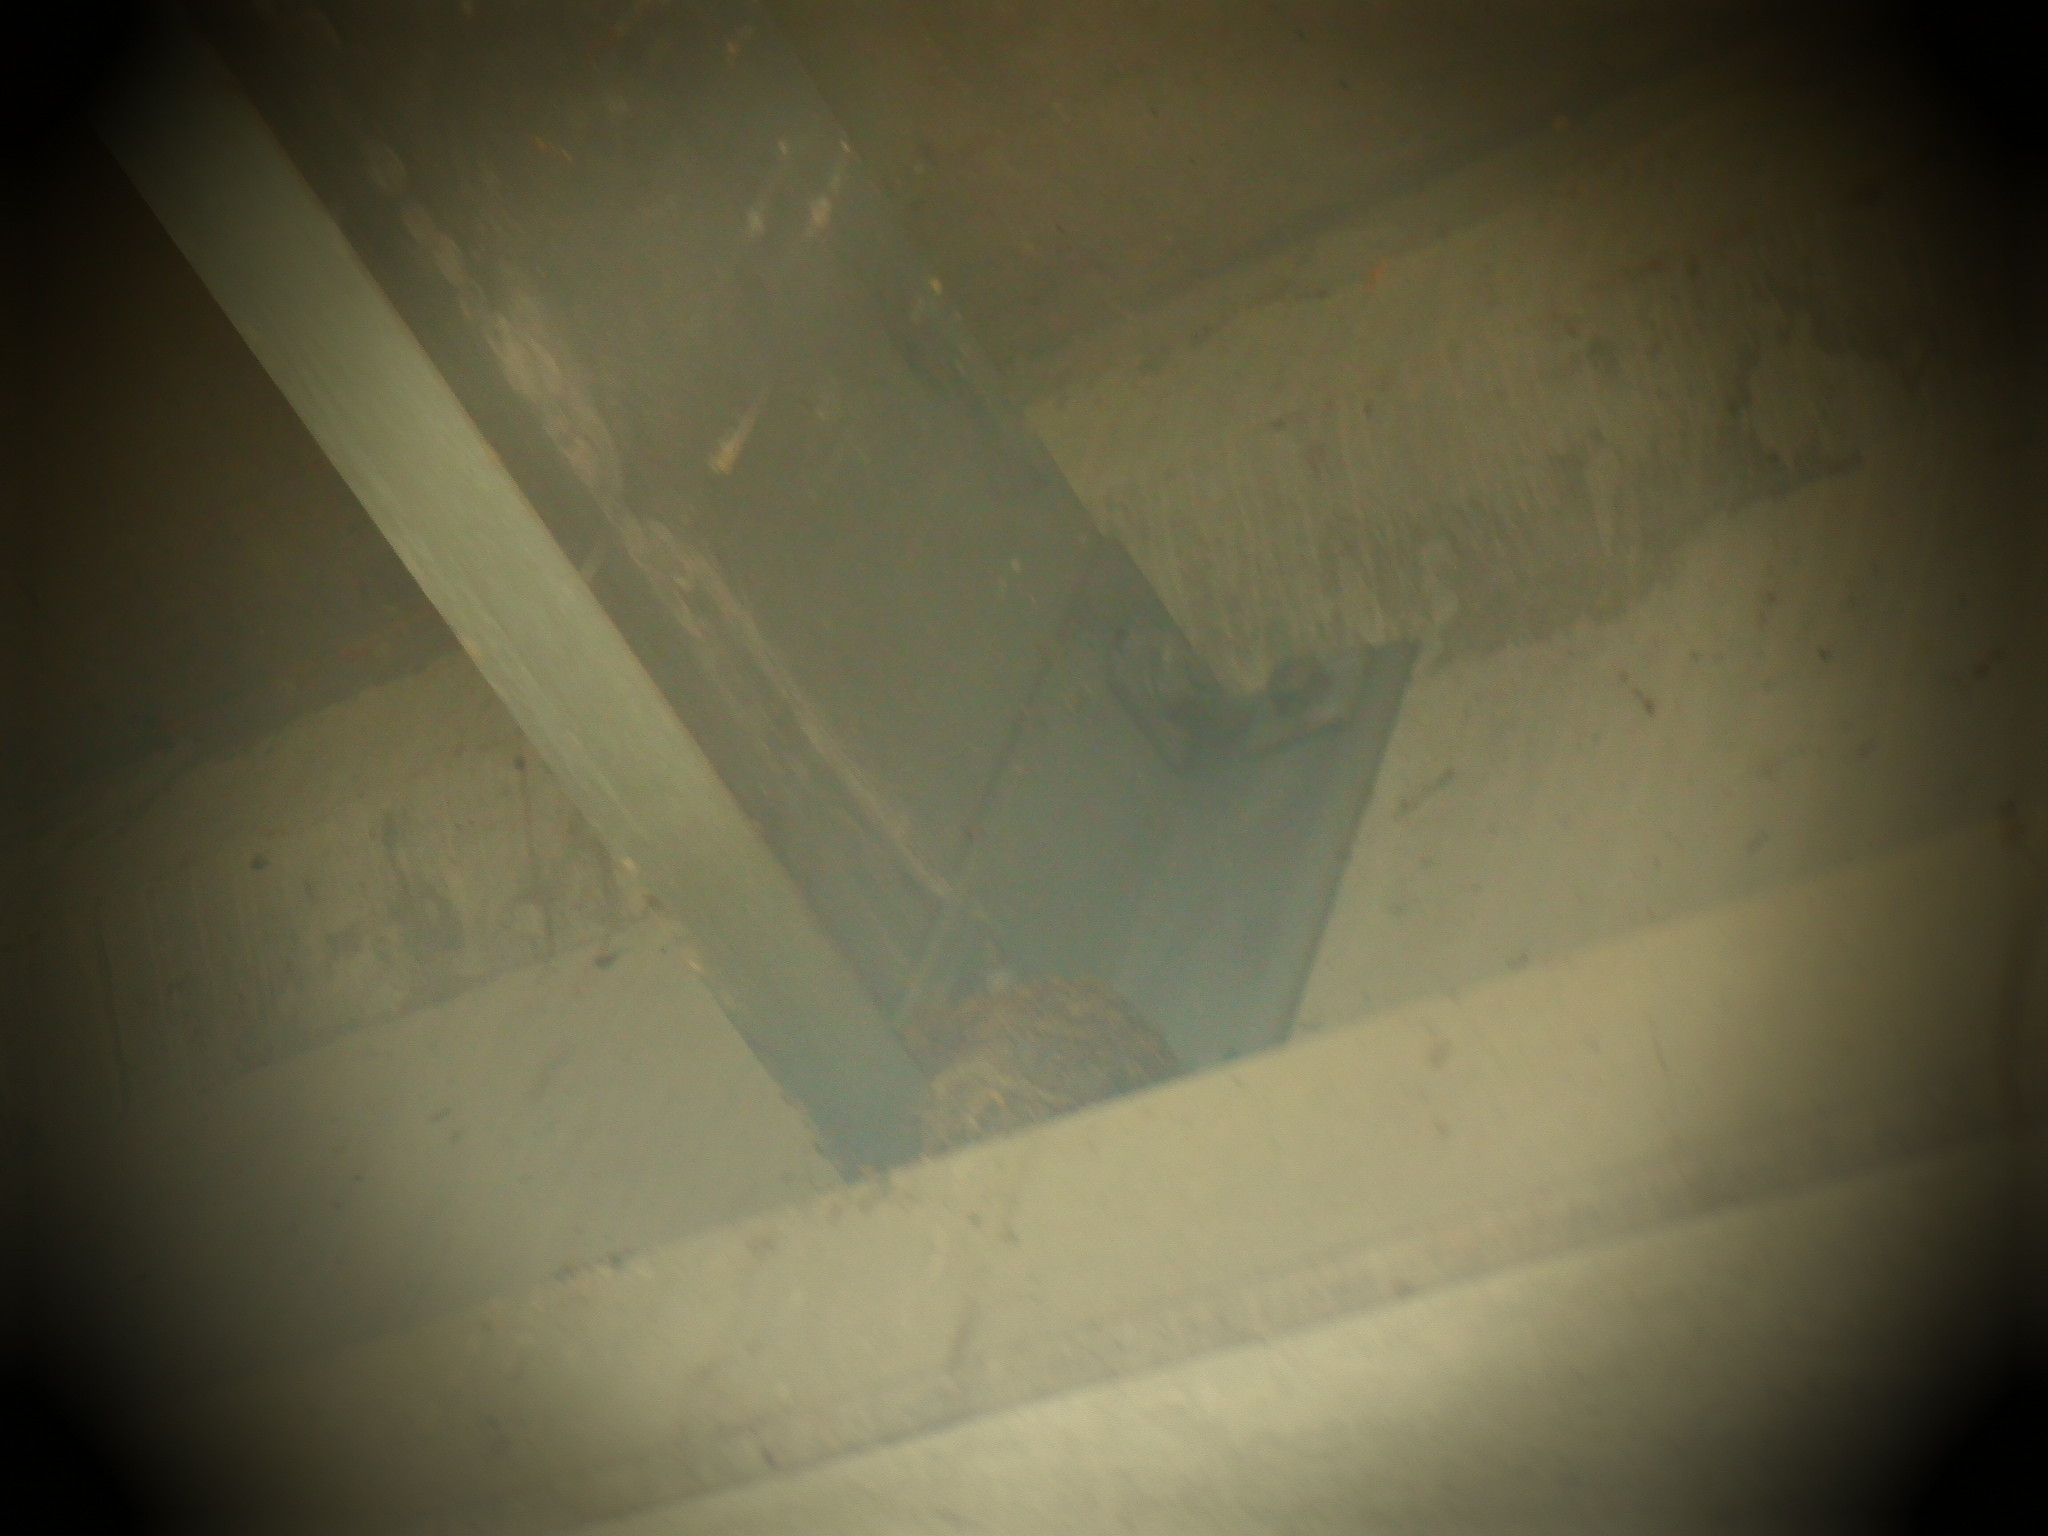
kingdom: Animalia
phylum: Chordata
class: Aves
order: Passeriformes
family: Hirundinidae
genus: Hirundo
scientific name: Hirundo rustica
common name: Barn swallow
